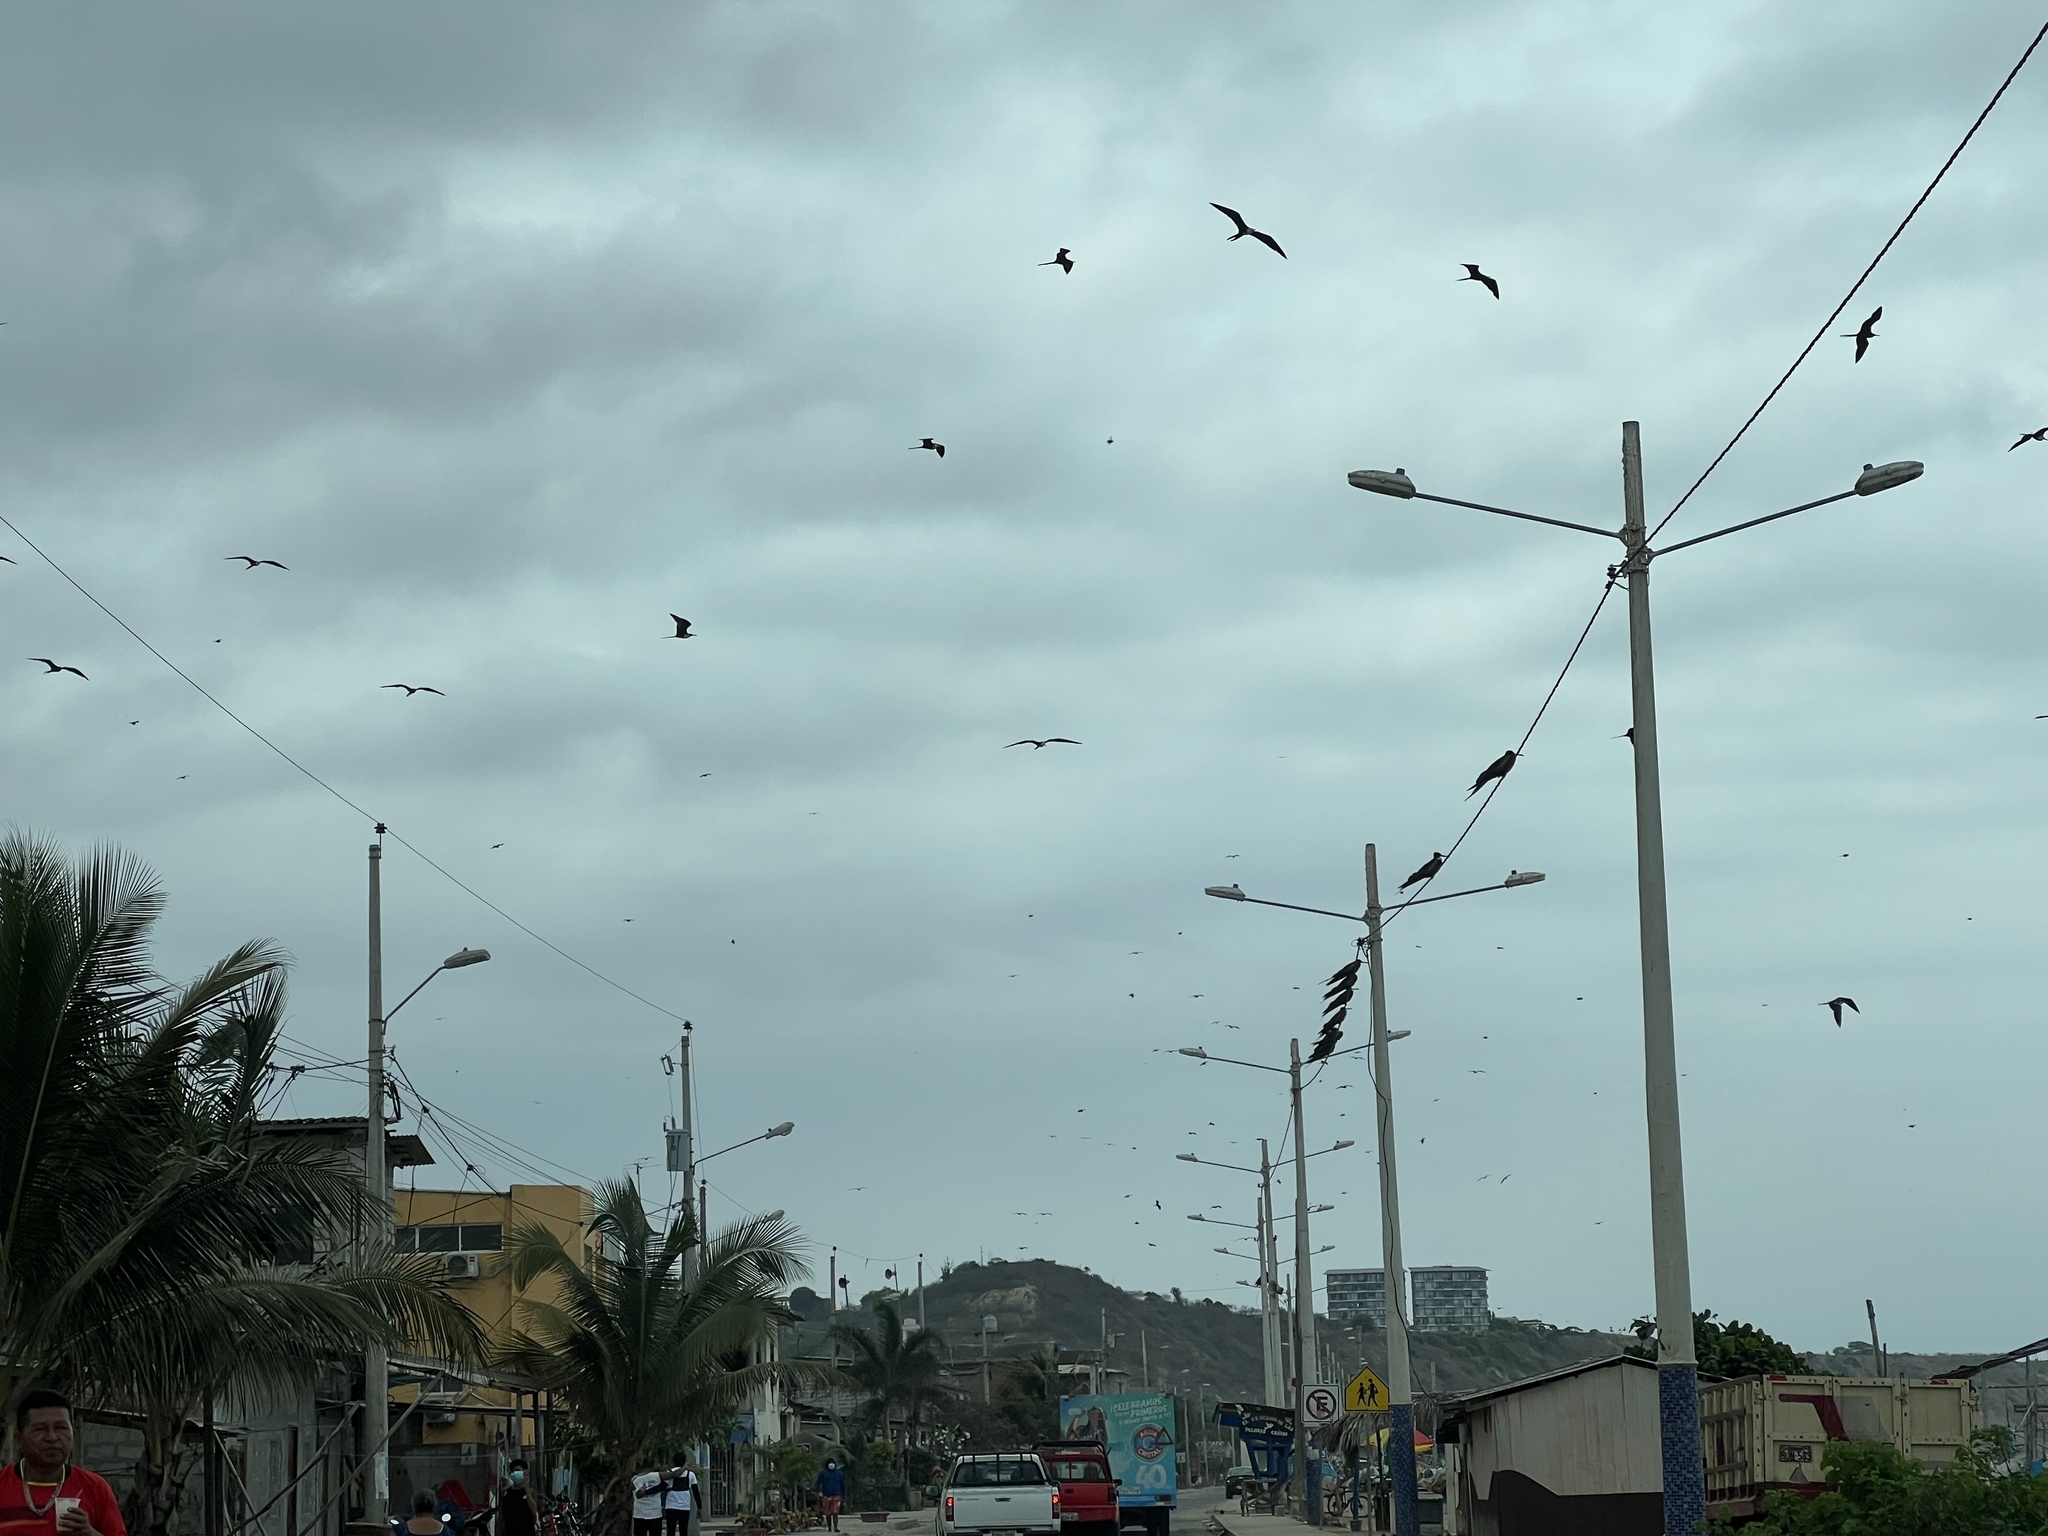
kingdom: Animalia
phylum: Chordata
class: Aves
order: Suliformes
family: Fregatidae
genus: Fregata
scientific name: Fregata magnificens
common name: Magnificent frigatebird
